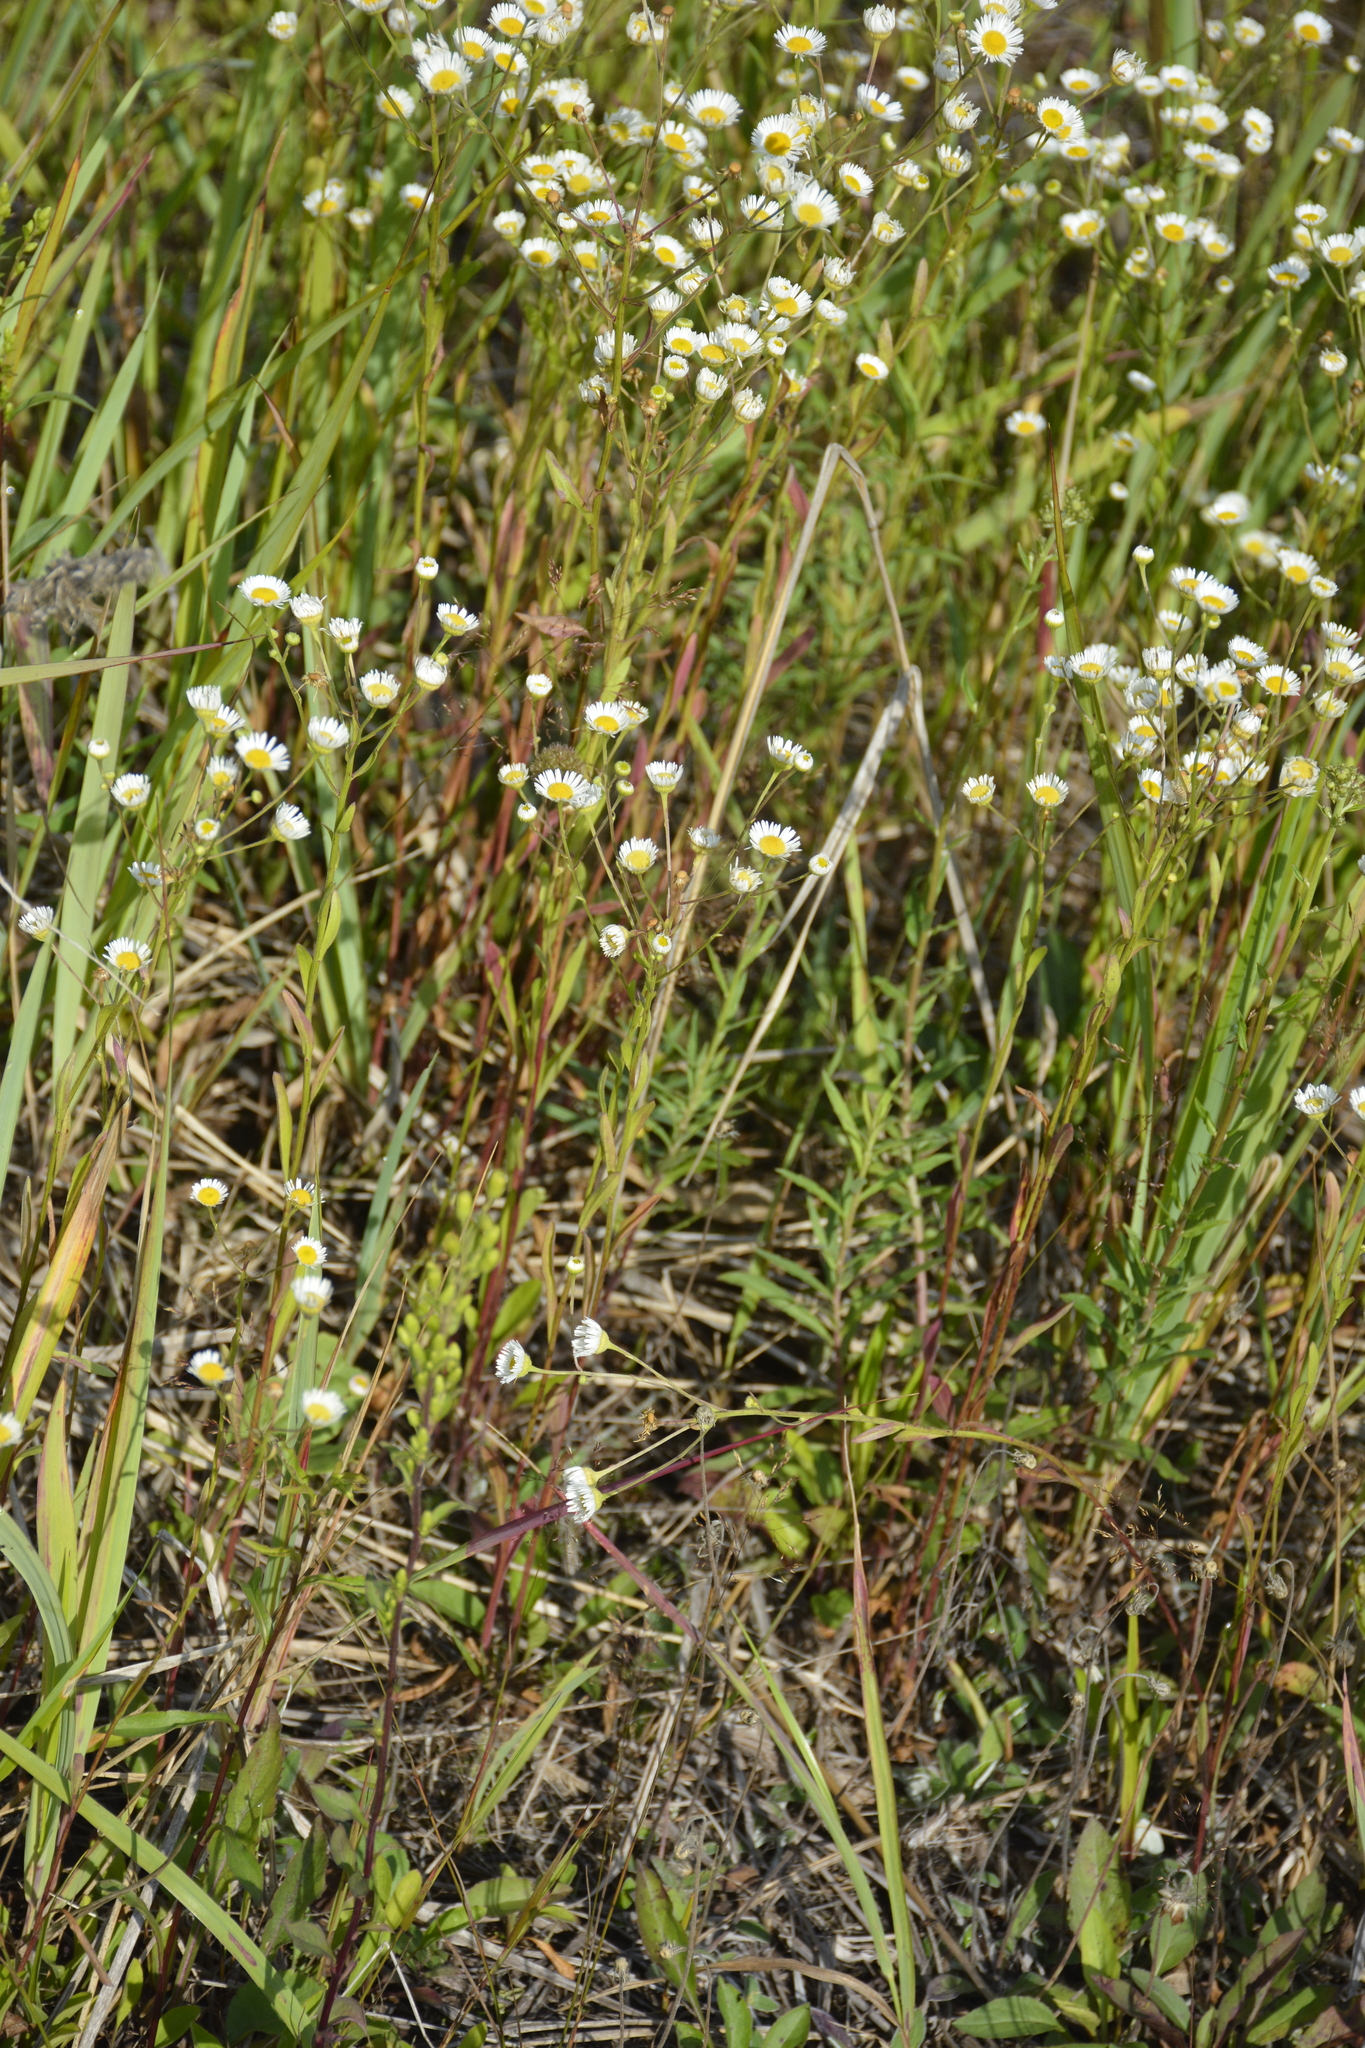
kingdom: Plantae
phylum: Tracheophyta
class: Magnoliopsida
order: Asterales
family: Asteraceae
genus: Erigeron
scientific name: Erigeron strigosus
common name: Common eastern fleabane
